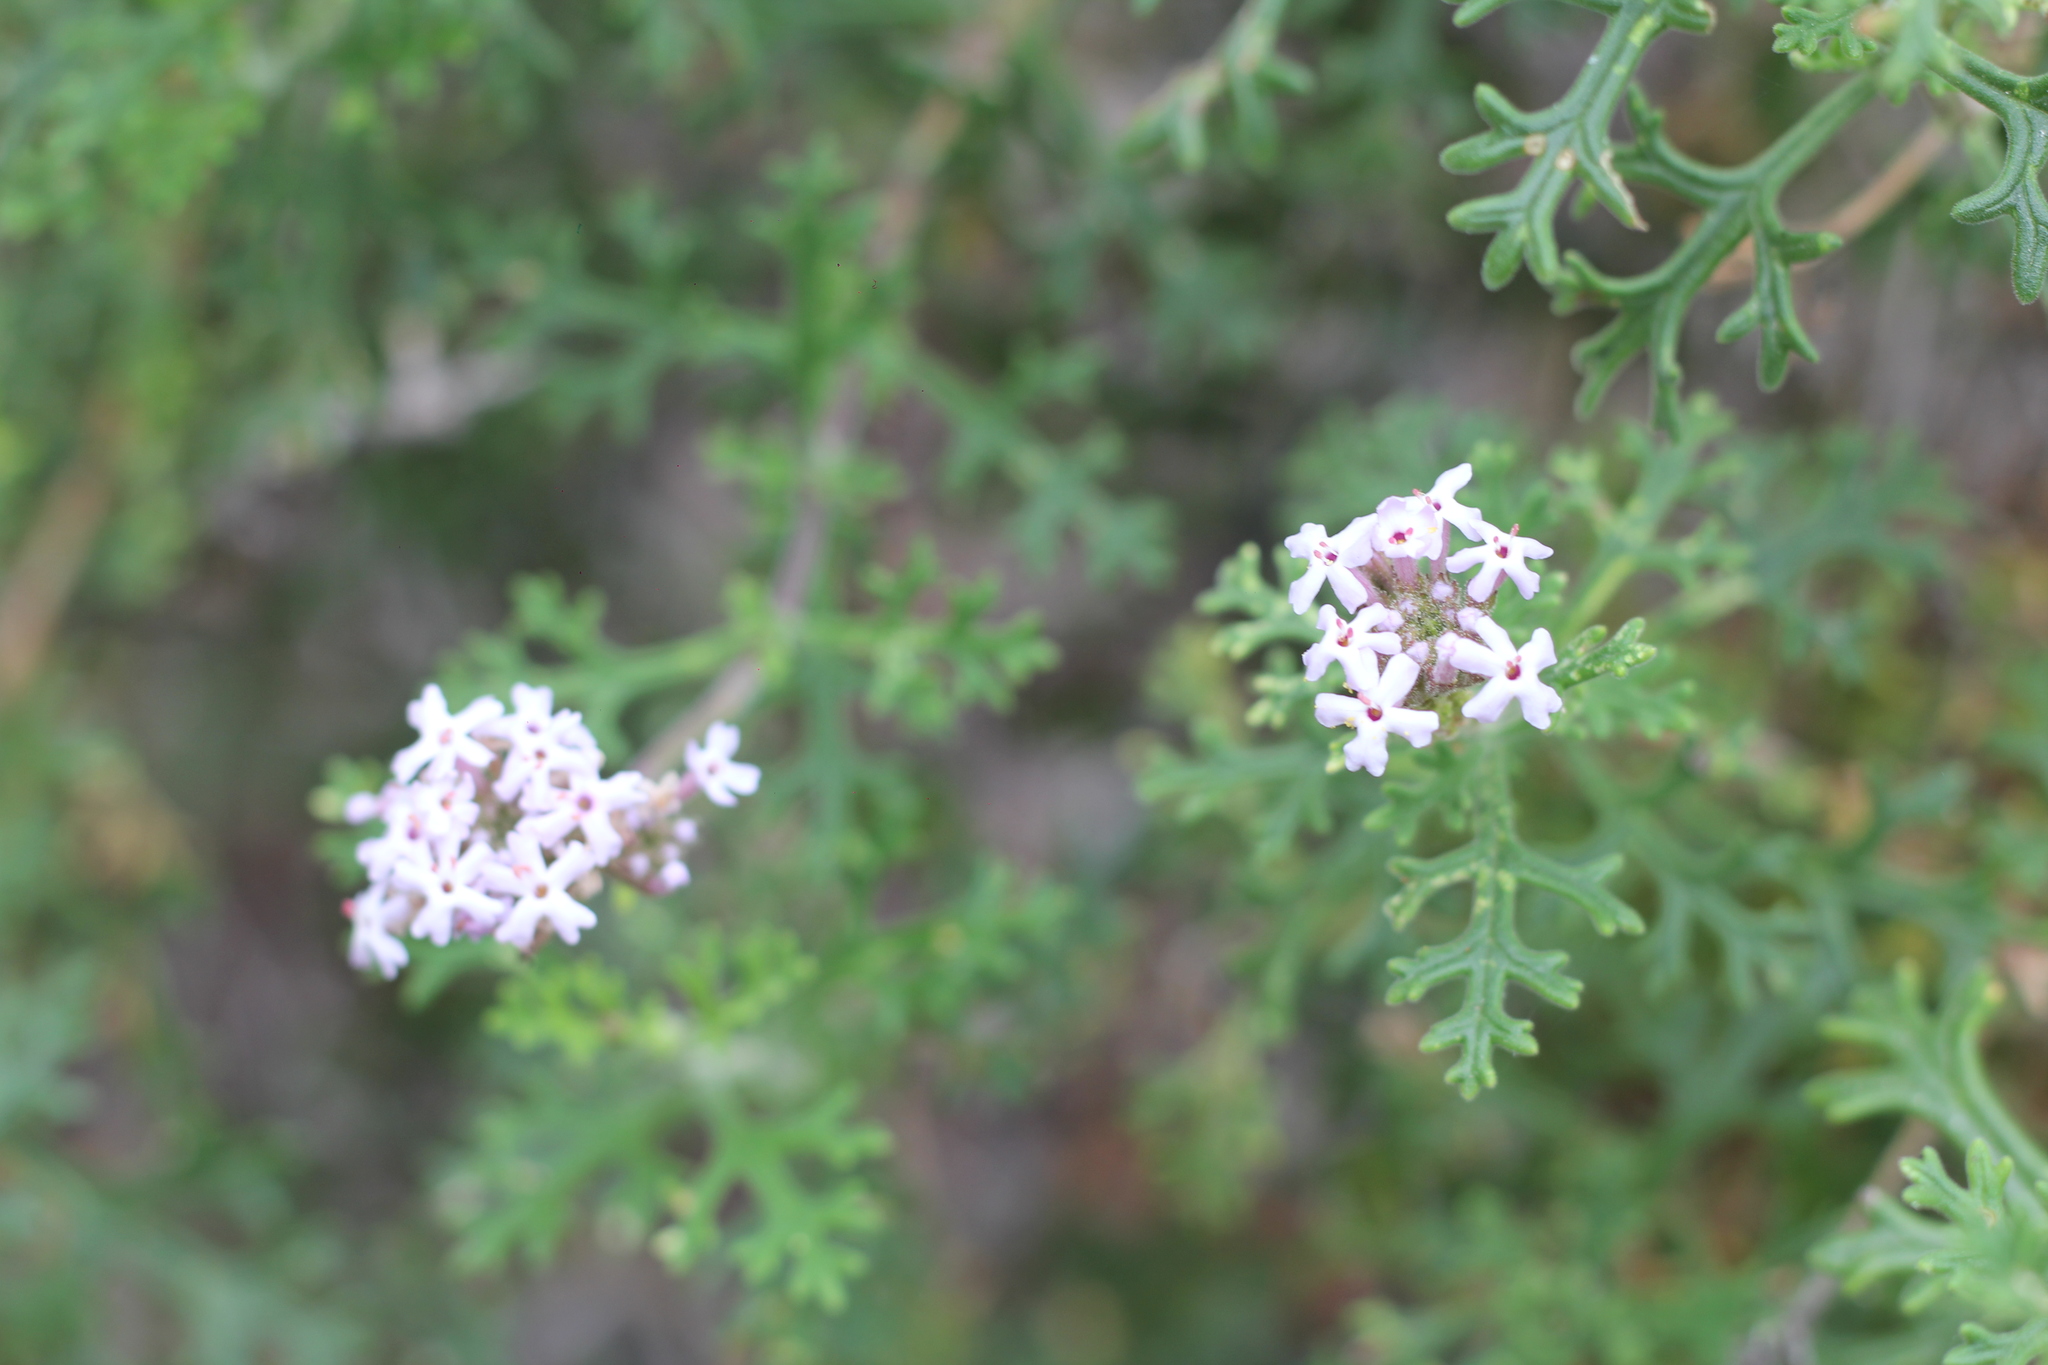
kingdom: Plantae
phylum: Tracheophyta
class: Magnoliopsida
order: Lamiales
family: Verbenaceae
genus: Junellia
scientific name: Junellia crithmifolia
